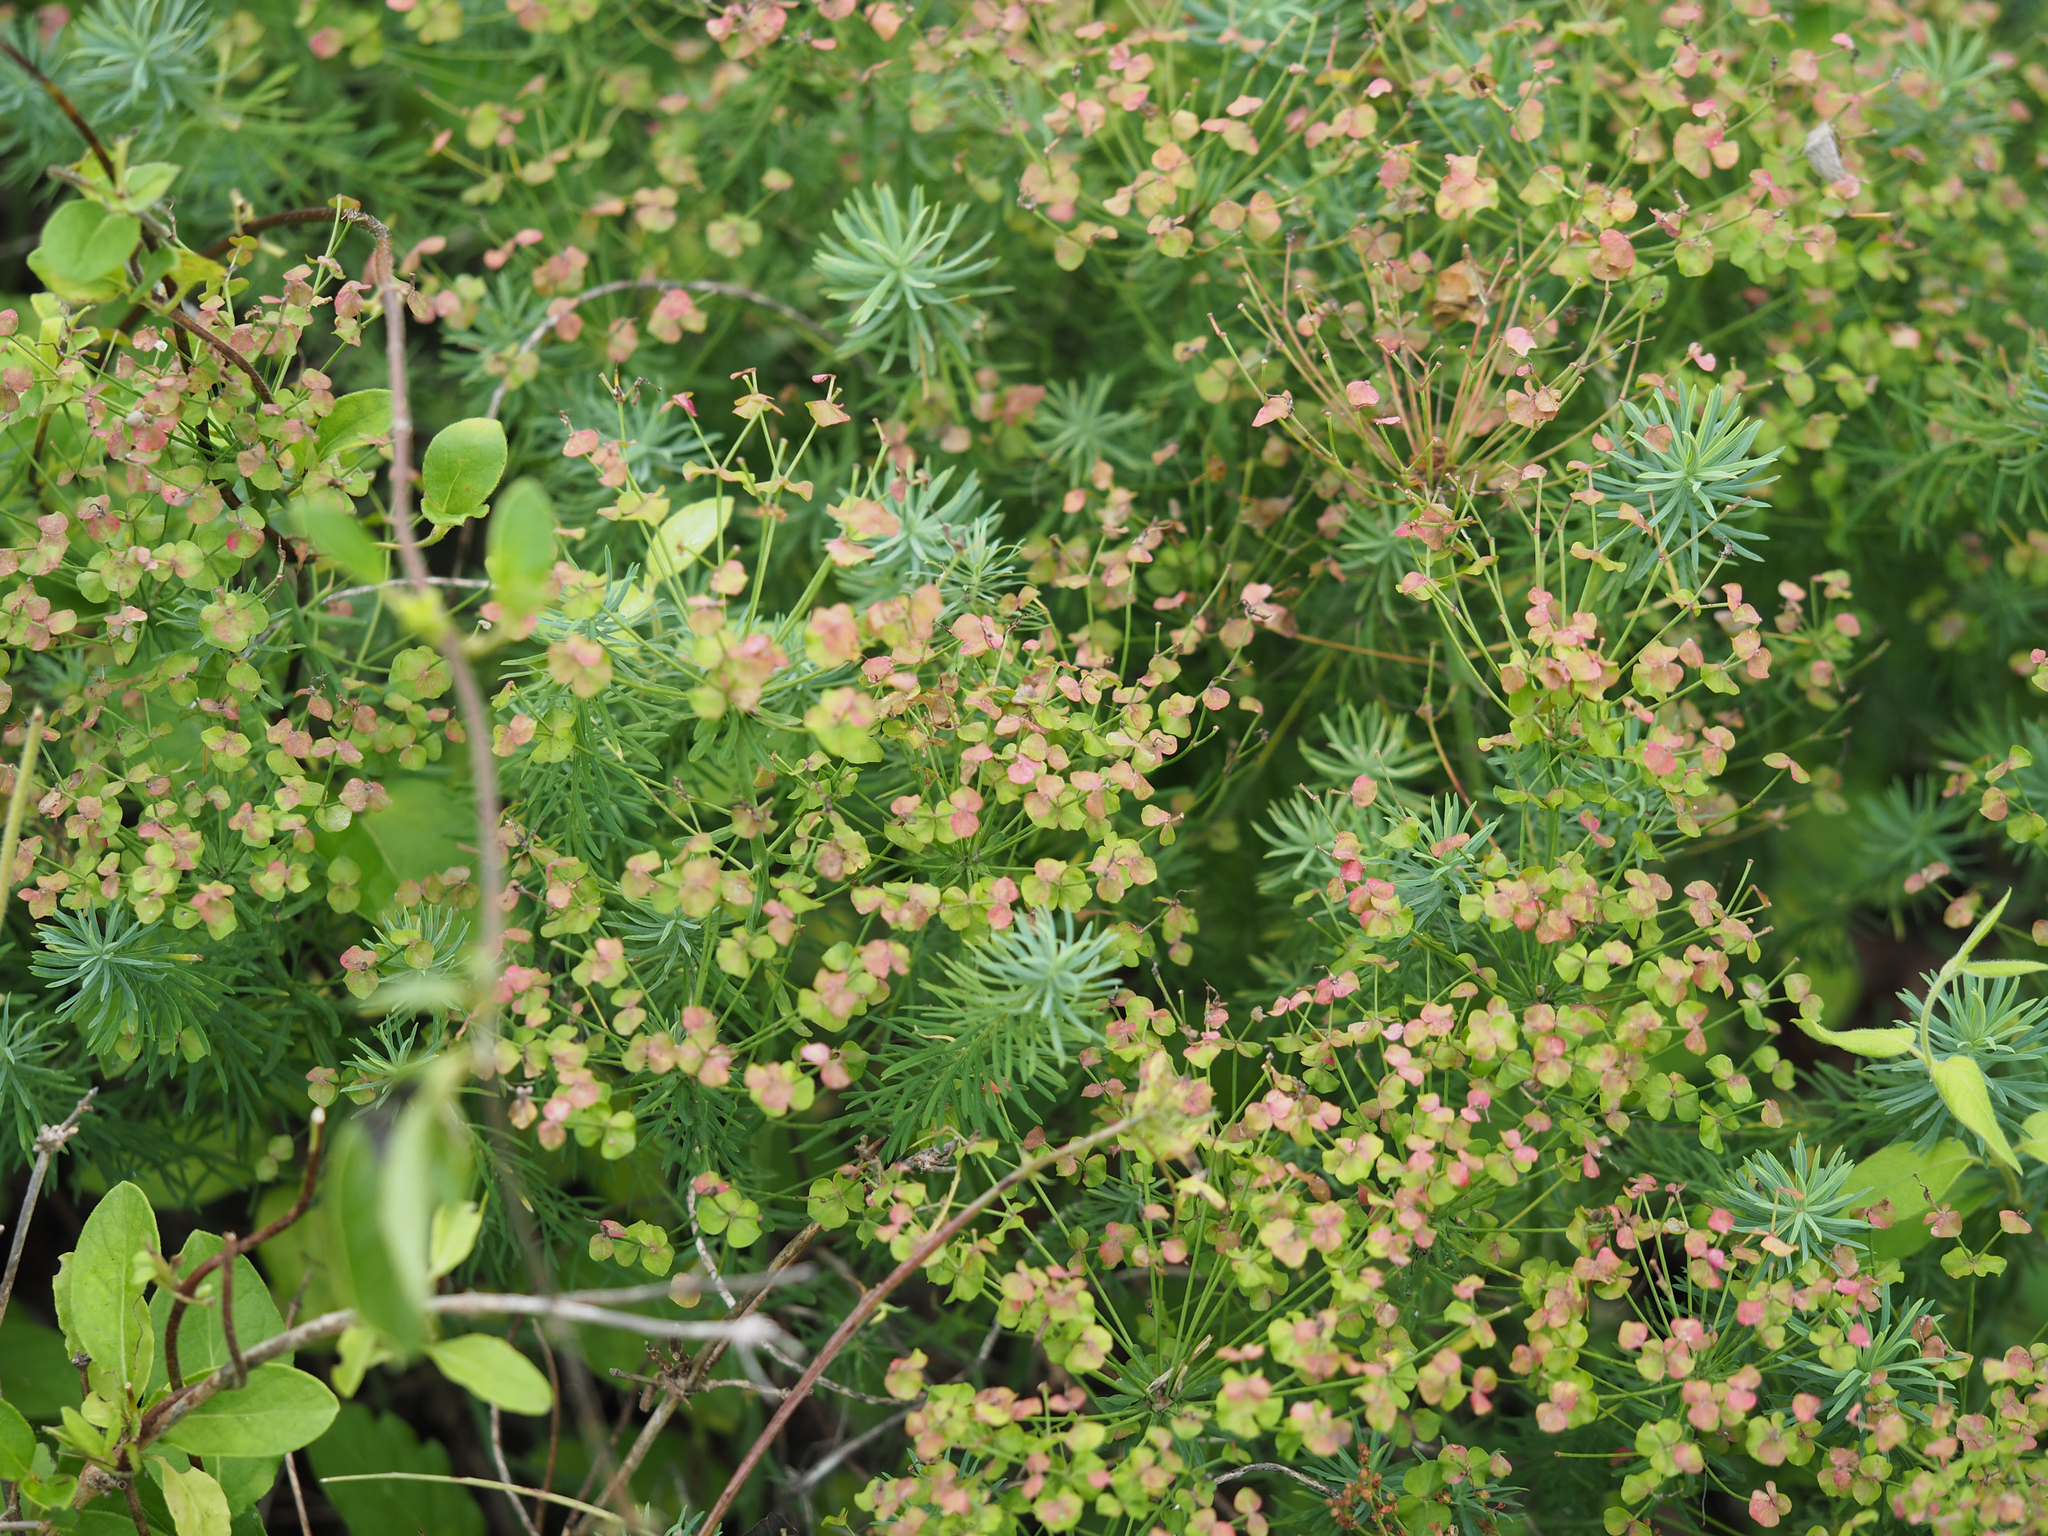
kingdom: Plantae
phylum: Tracheophyta
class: Magnoliopsida
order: Malpighiales
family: Euphorbiaceae
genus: Euphorbia
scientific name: Euphorbia cyparissias
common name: Cypress spurge
